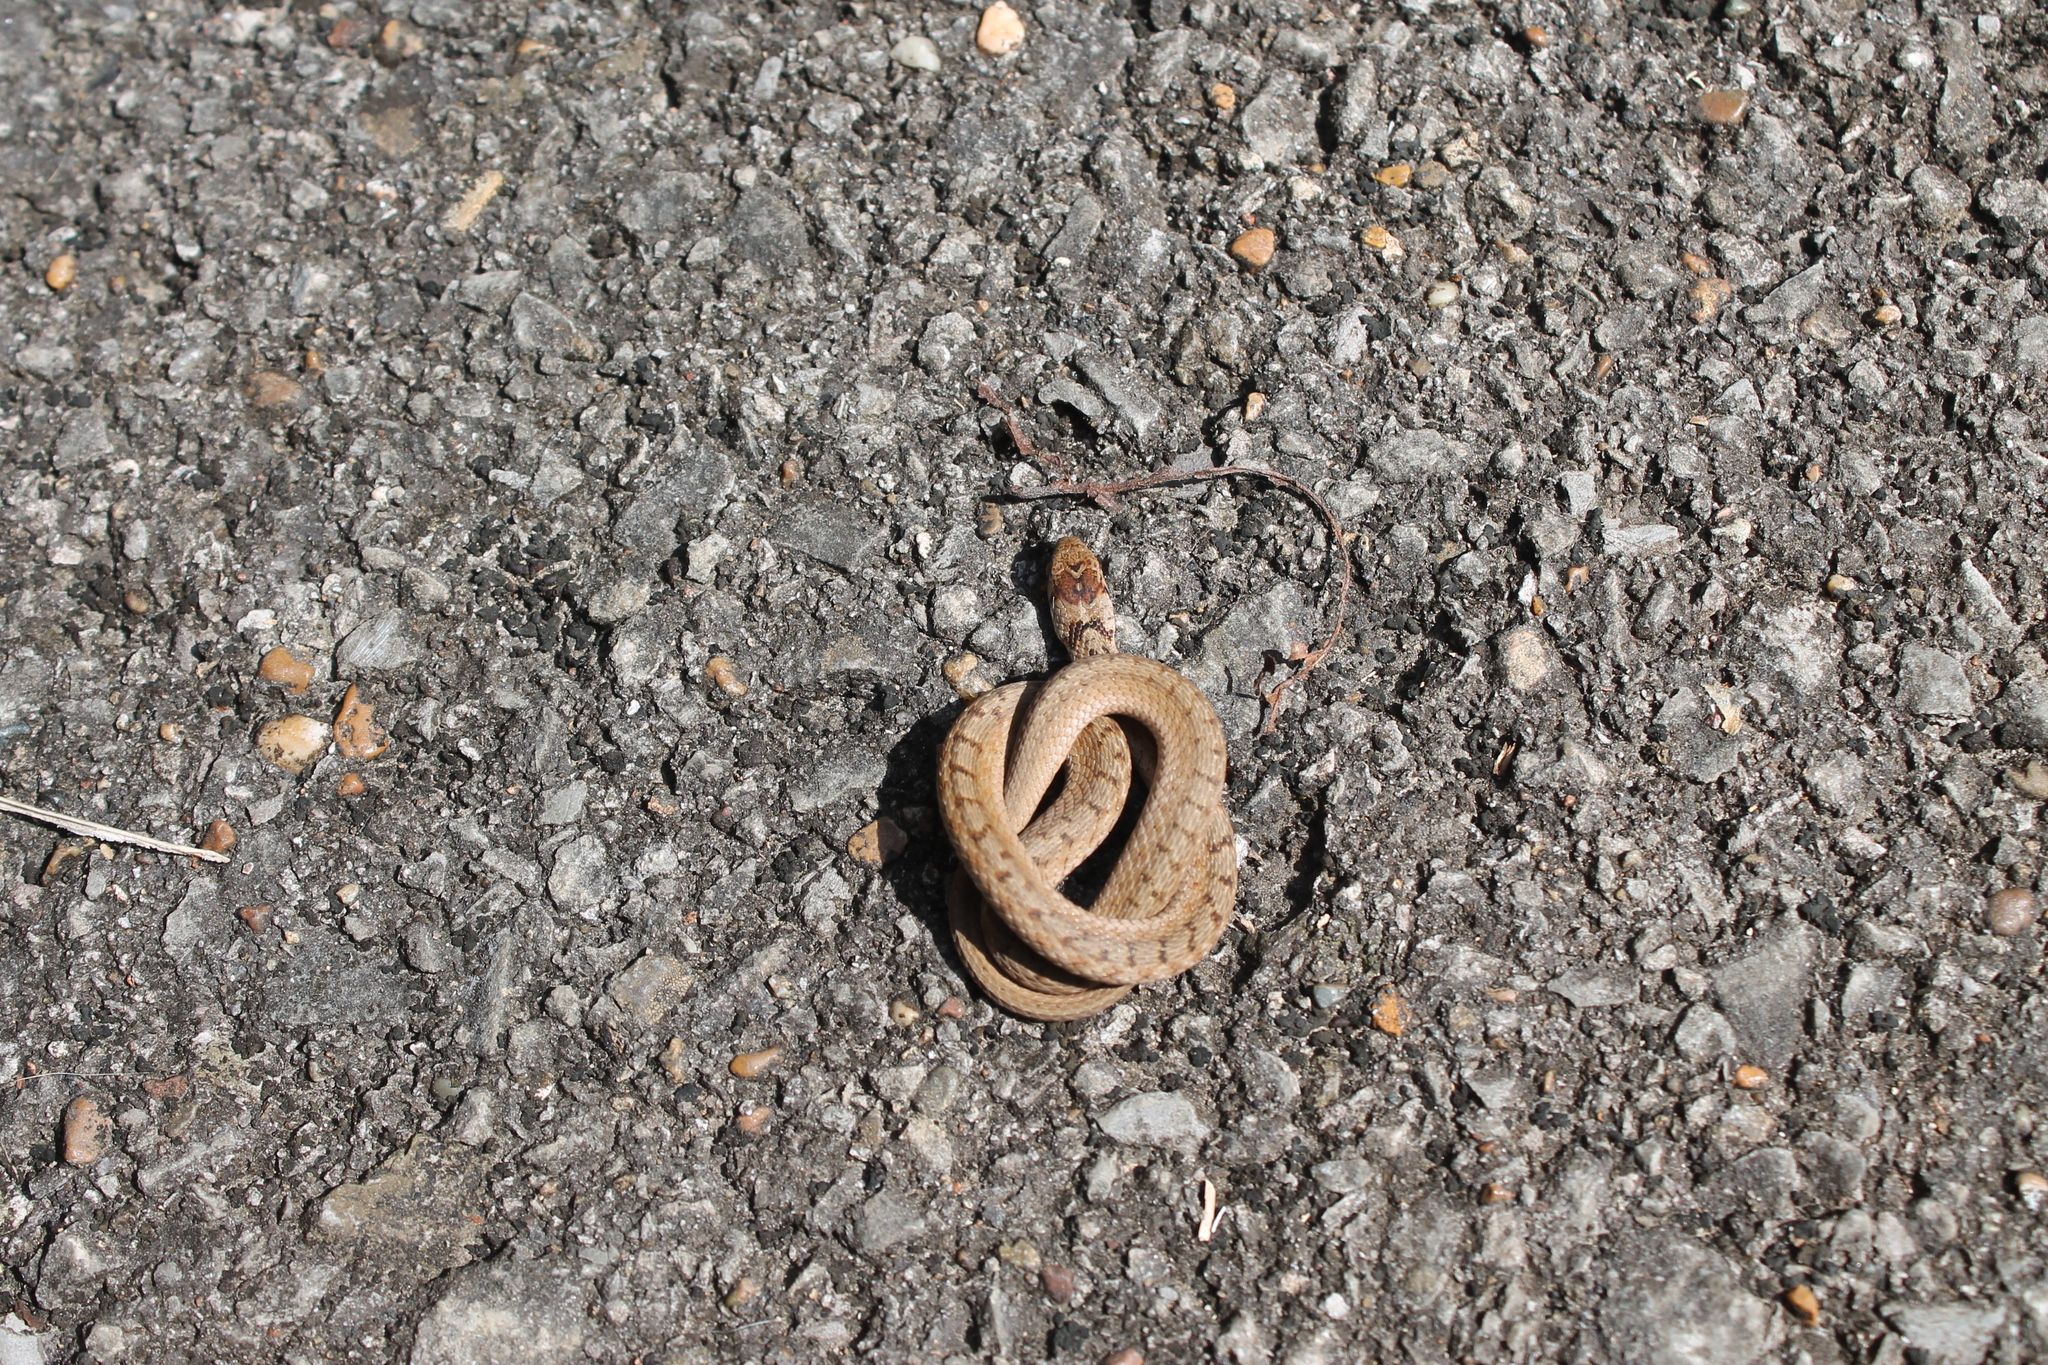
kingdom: Animalia
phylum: Chordata
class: Squamata
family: Colubridae
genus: Storeria
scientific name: Storeria dekayi
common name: (dekay’s) brown snake
